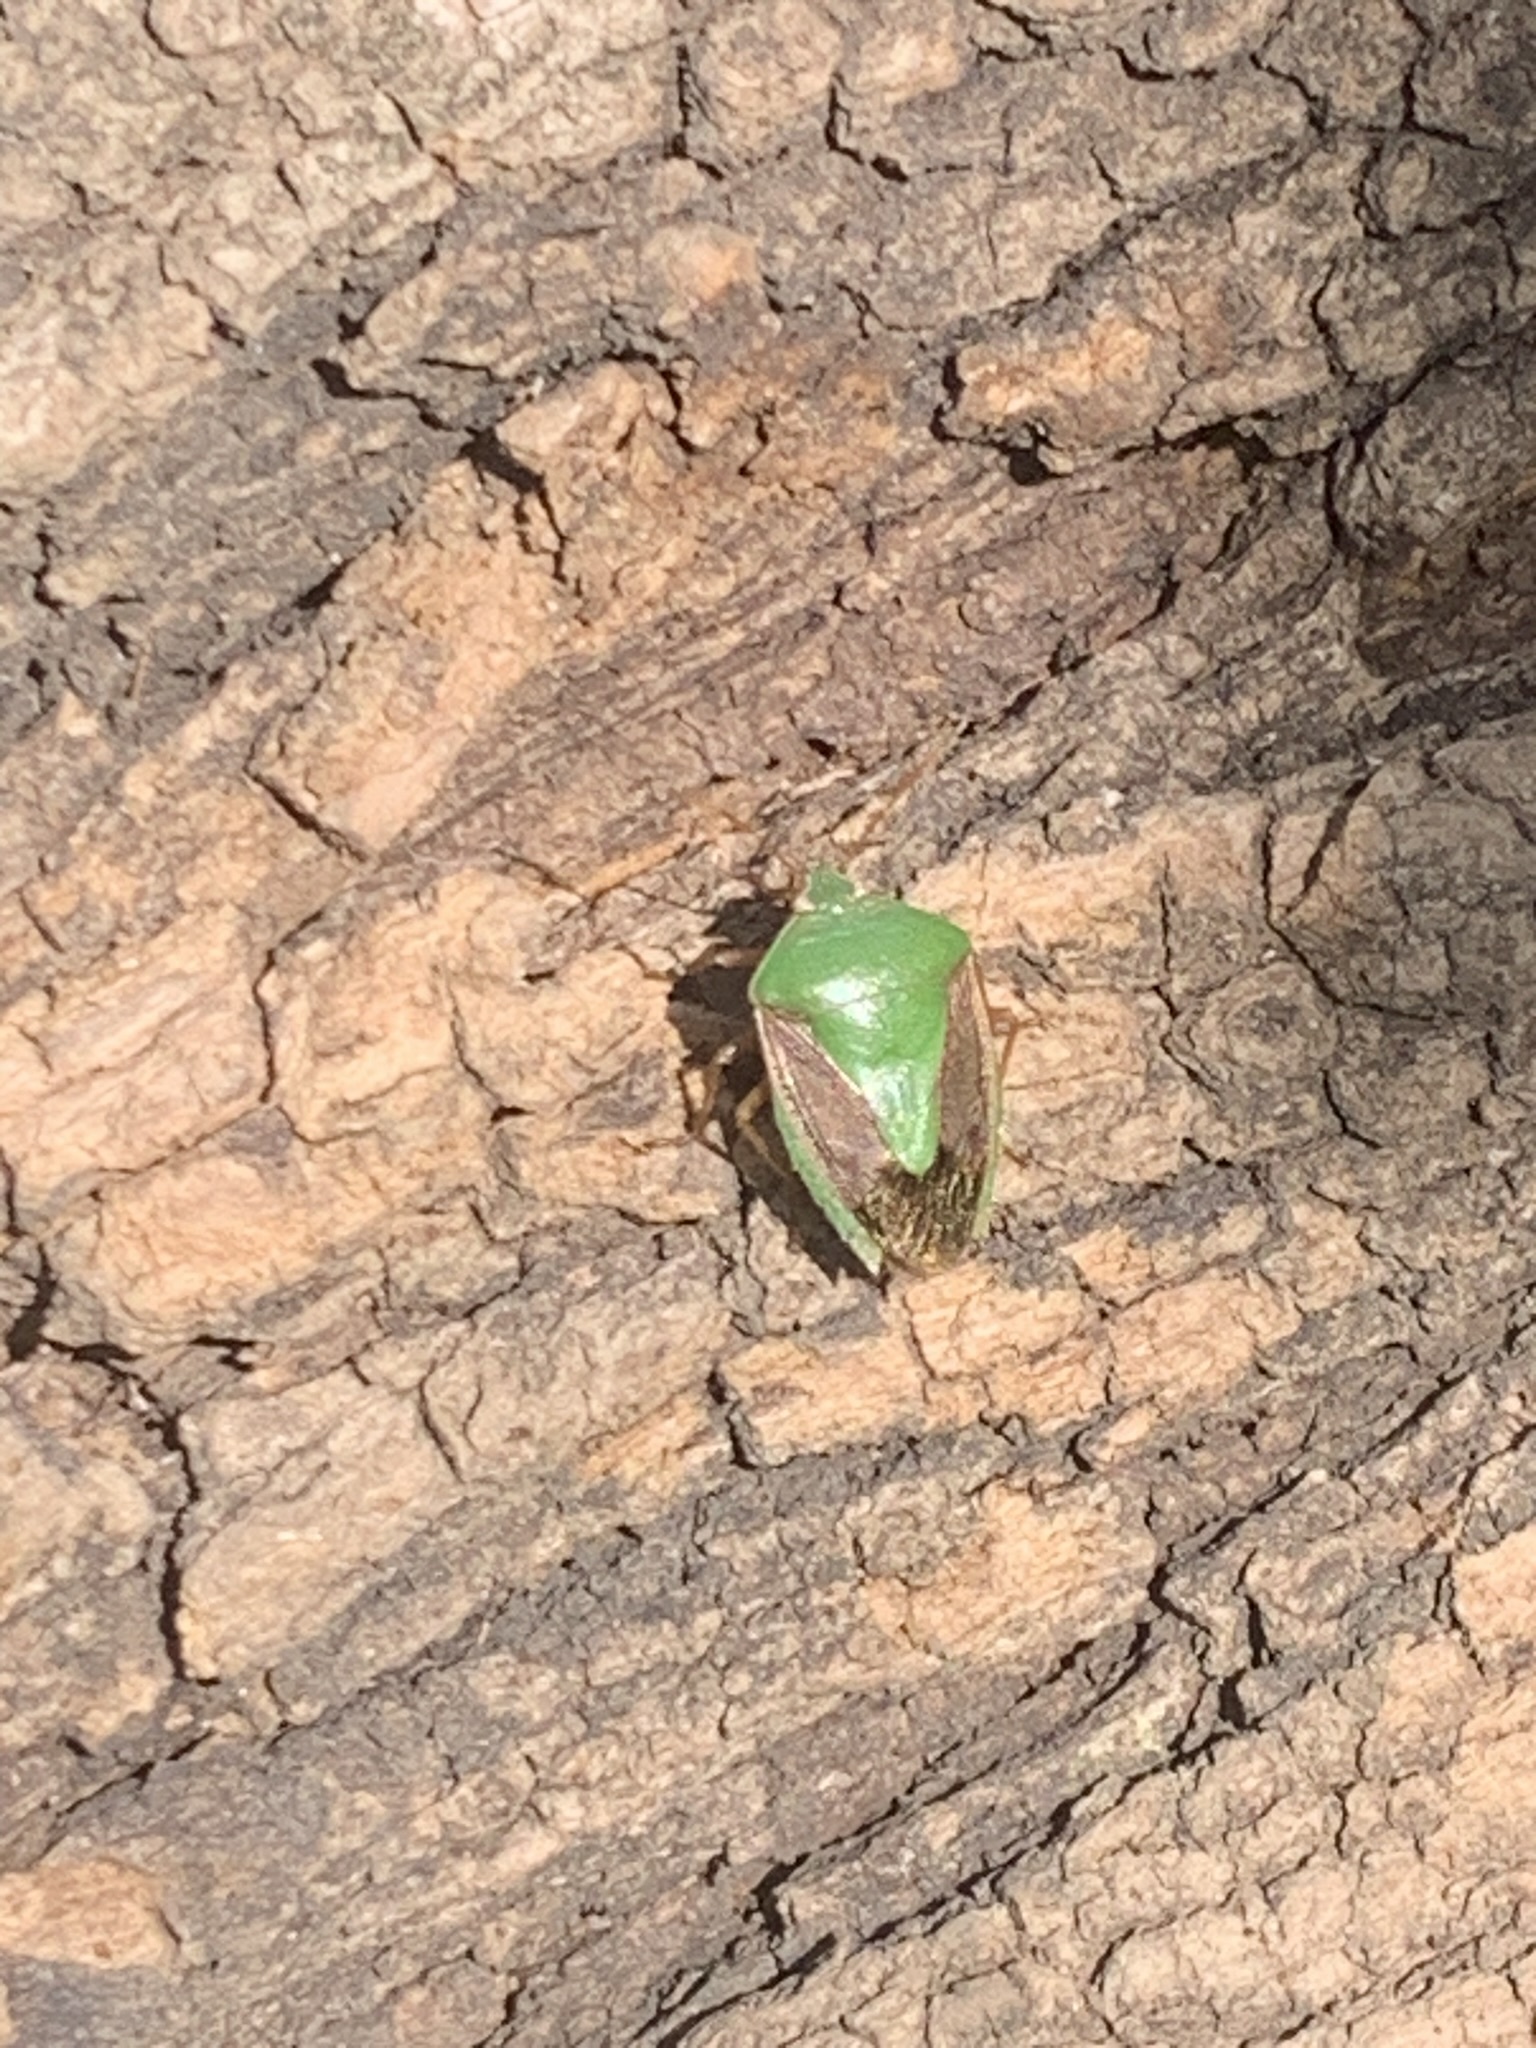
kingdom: Animalia
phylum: Arthropoda
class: Insecta
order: Hemiptera
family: Pentatomidae
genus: Edessa
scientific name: Edessa meditabunda
